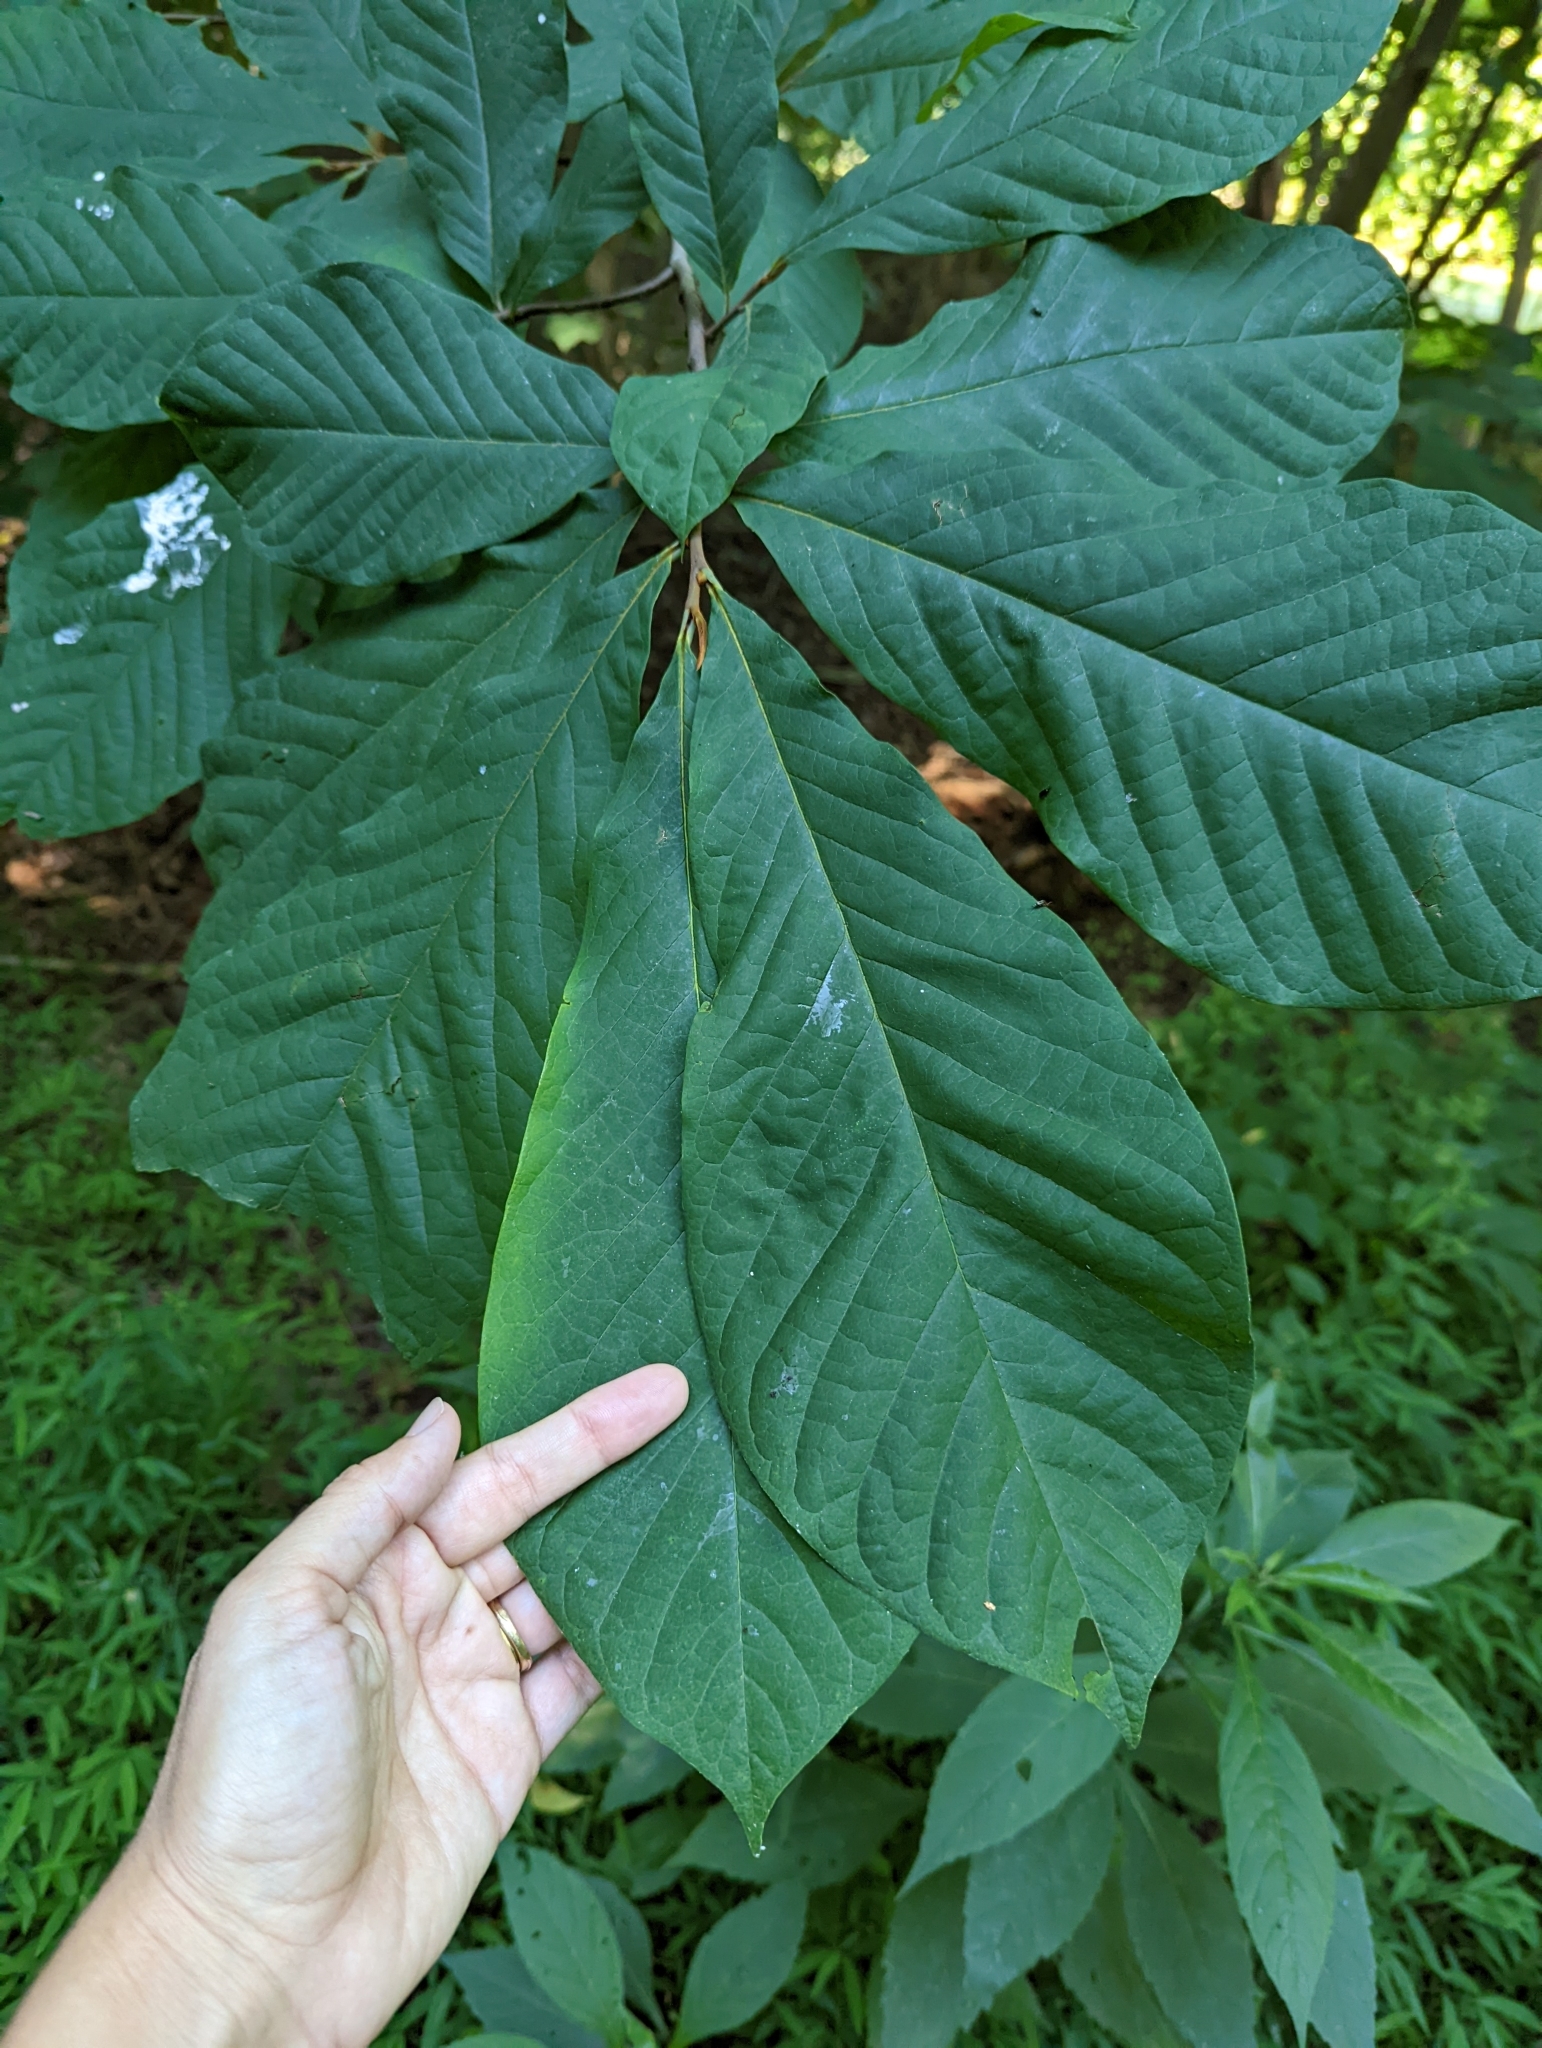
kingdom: Plantae
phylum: Tracheophyta
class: Magnoliopsida
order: Magnoliales
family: Annonaceae
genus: Asimina
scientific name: Asimina triloba
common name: Dog-banana
